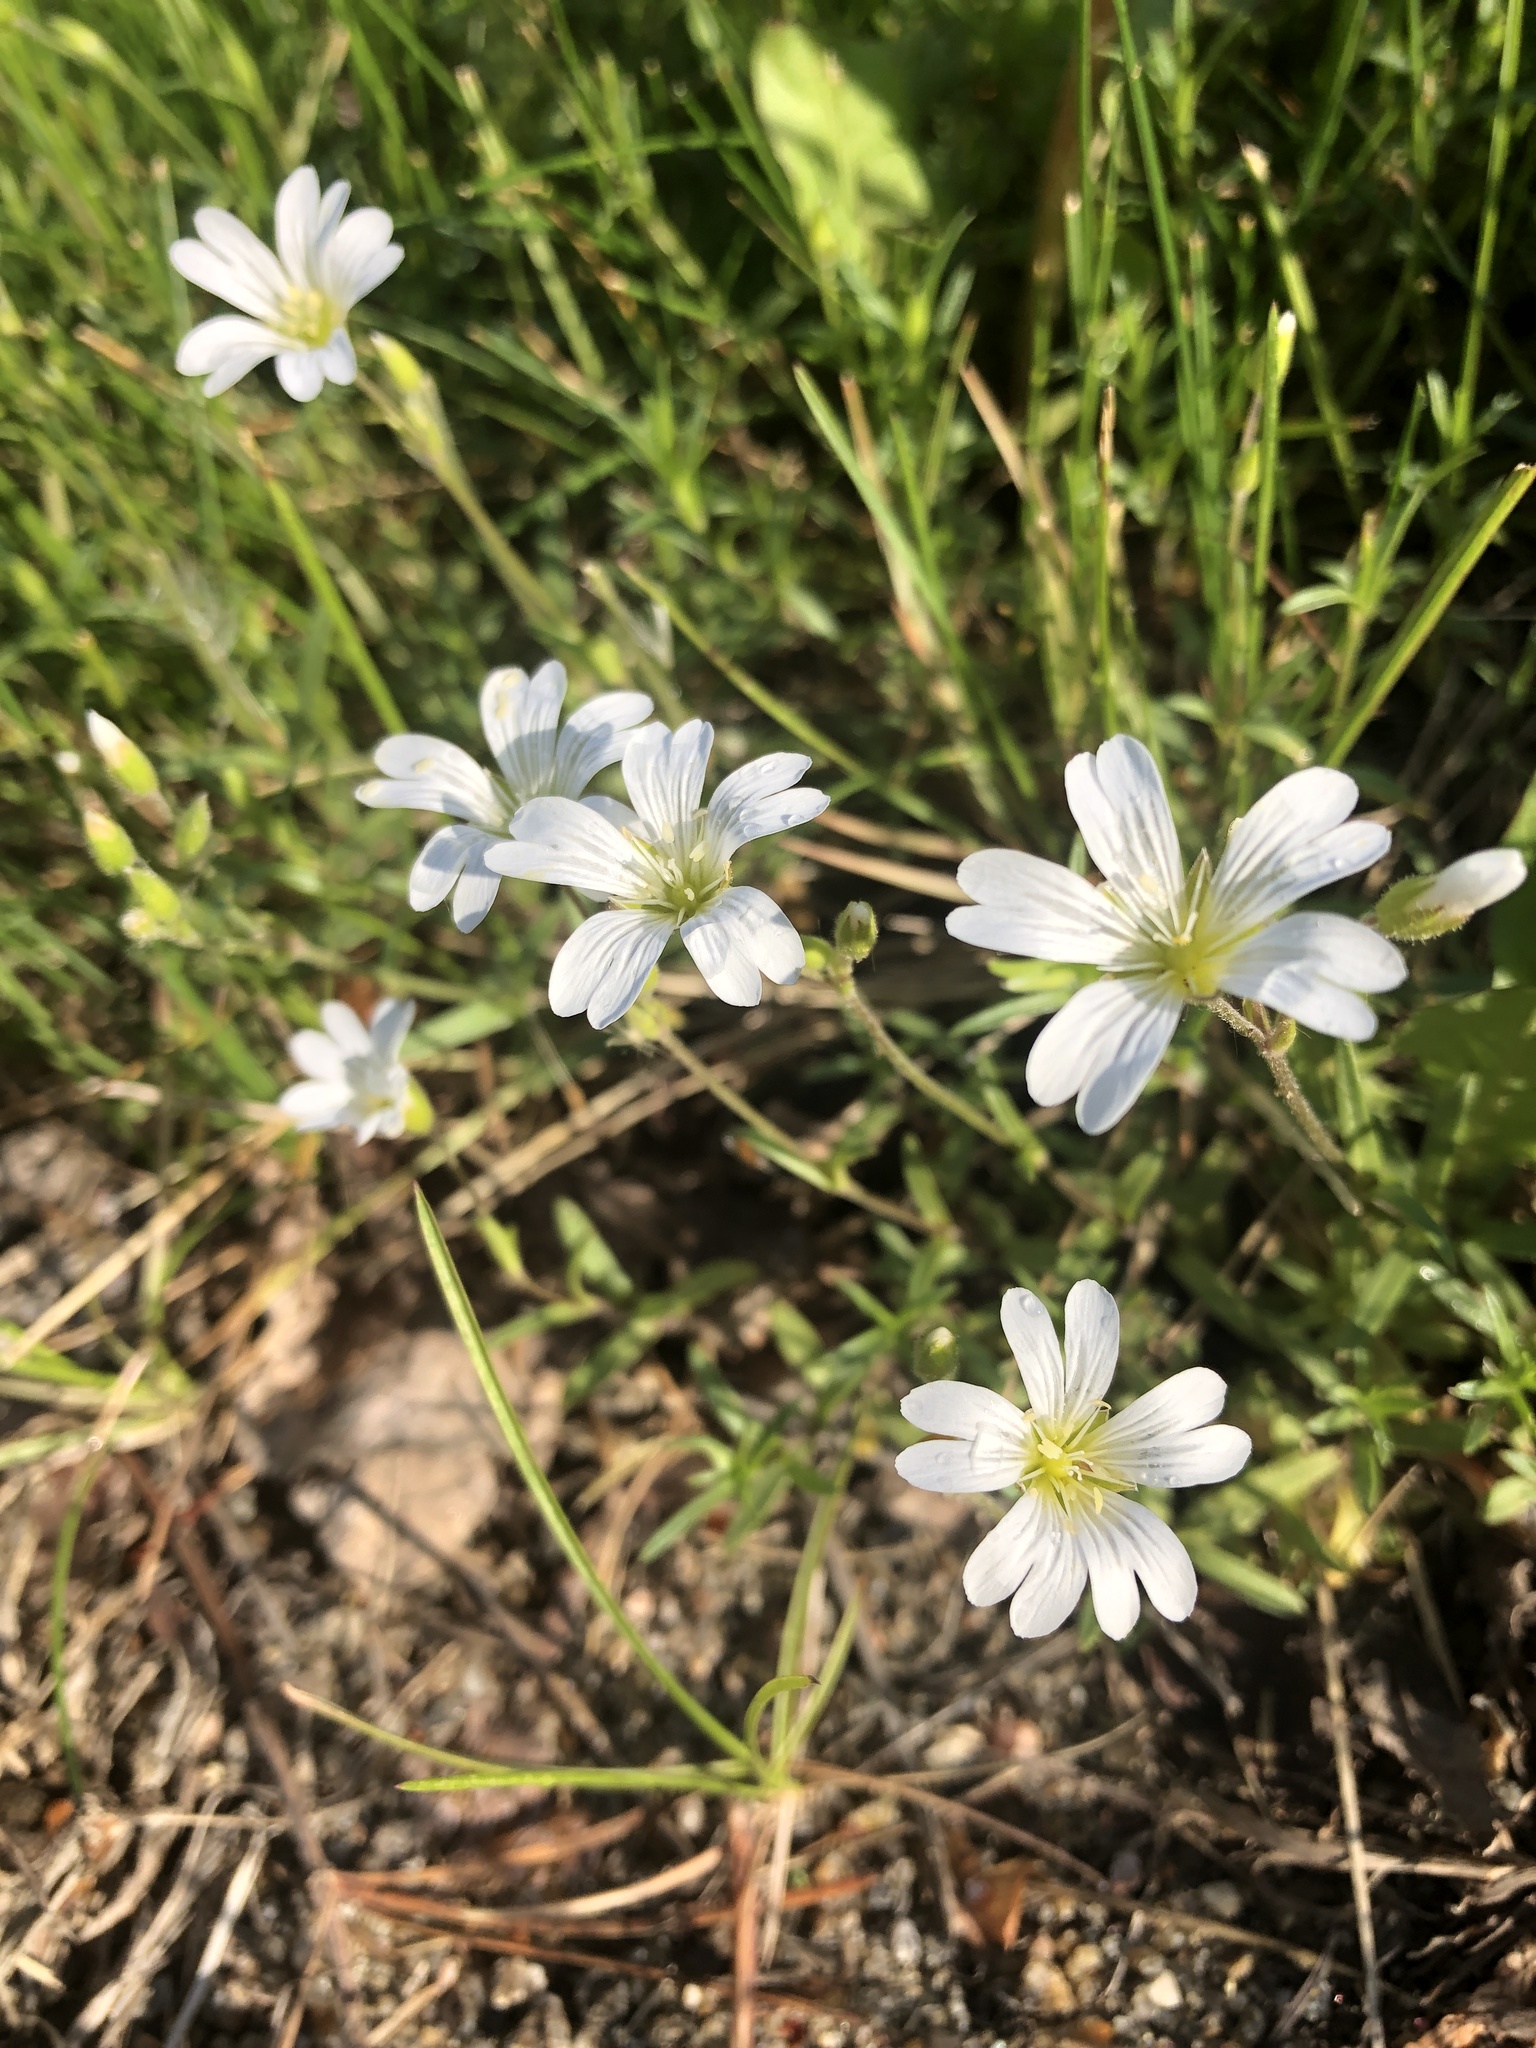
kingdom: Plantae
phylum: Tracheophyta
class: Magnoliopsida
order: Caryophyllales
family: Caryophyllaceae
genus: Cerastium
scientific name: Cerastium arvense
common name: Field mouse-ear
